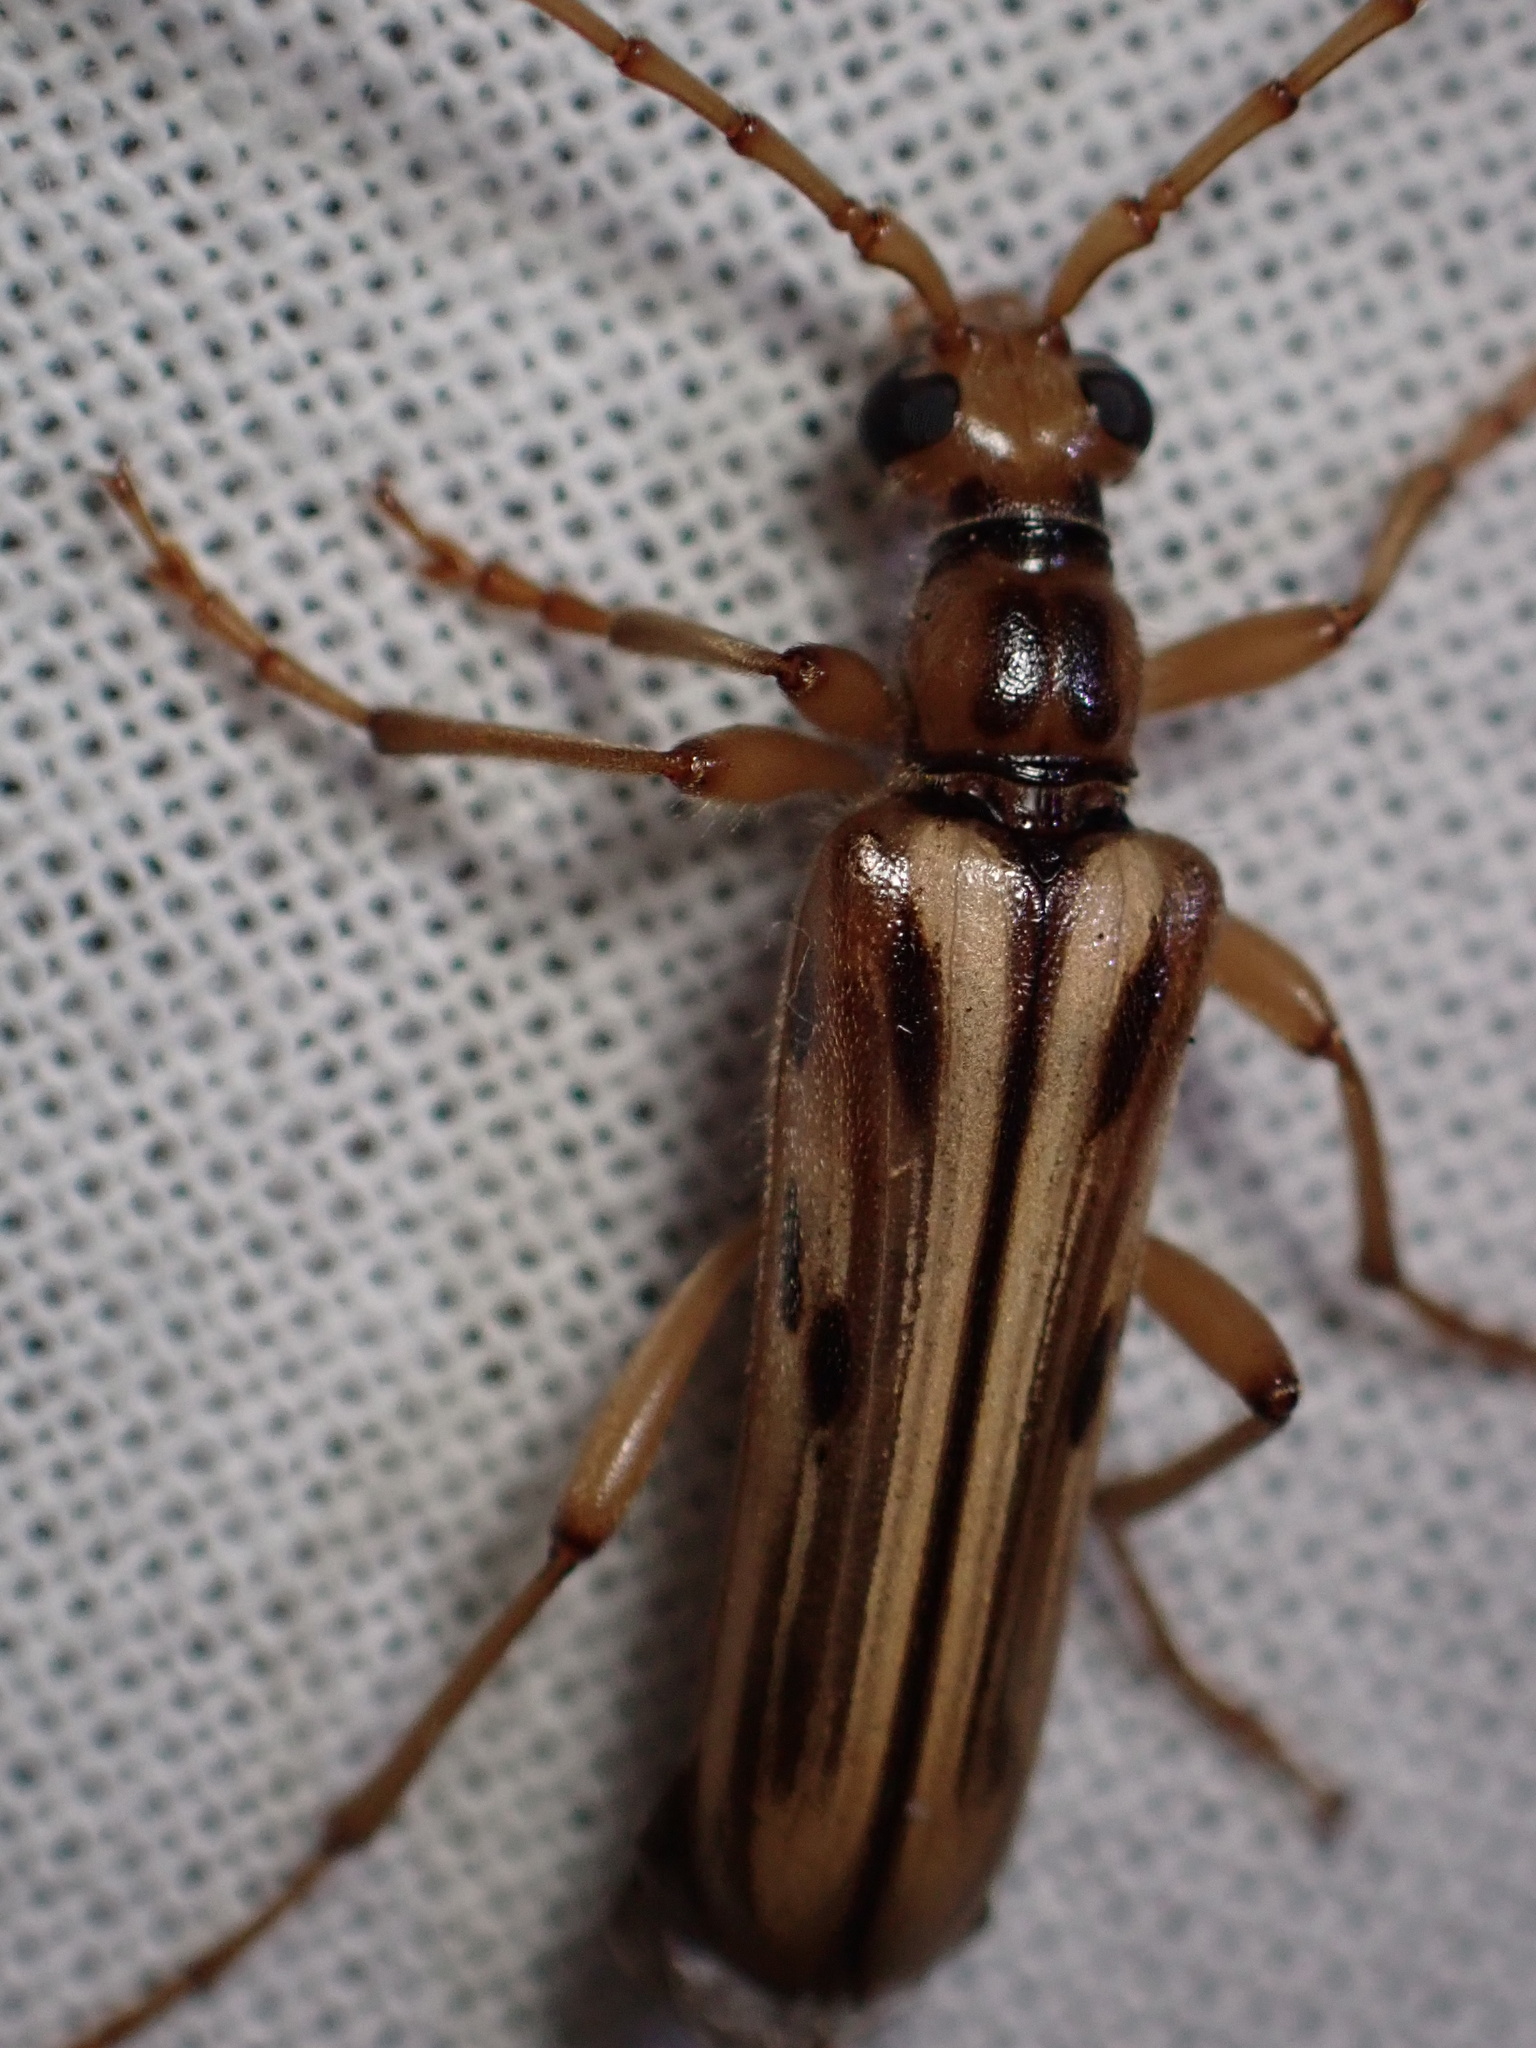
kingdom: Animalia
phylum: Arthropoda
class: Insecta
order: Coleoptera
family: Cerambycidae
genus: Ortholeptura
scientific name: Ortholeptura valida
